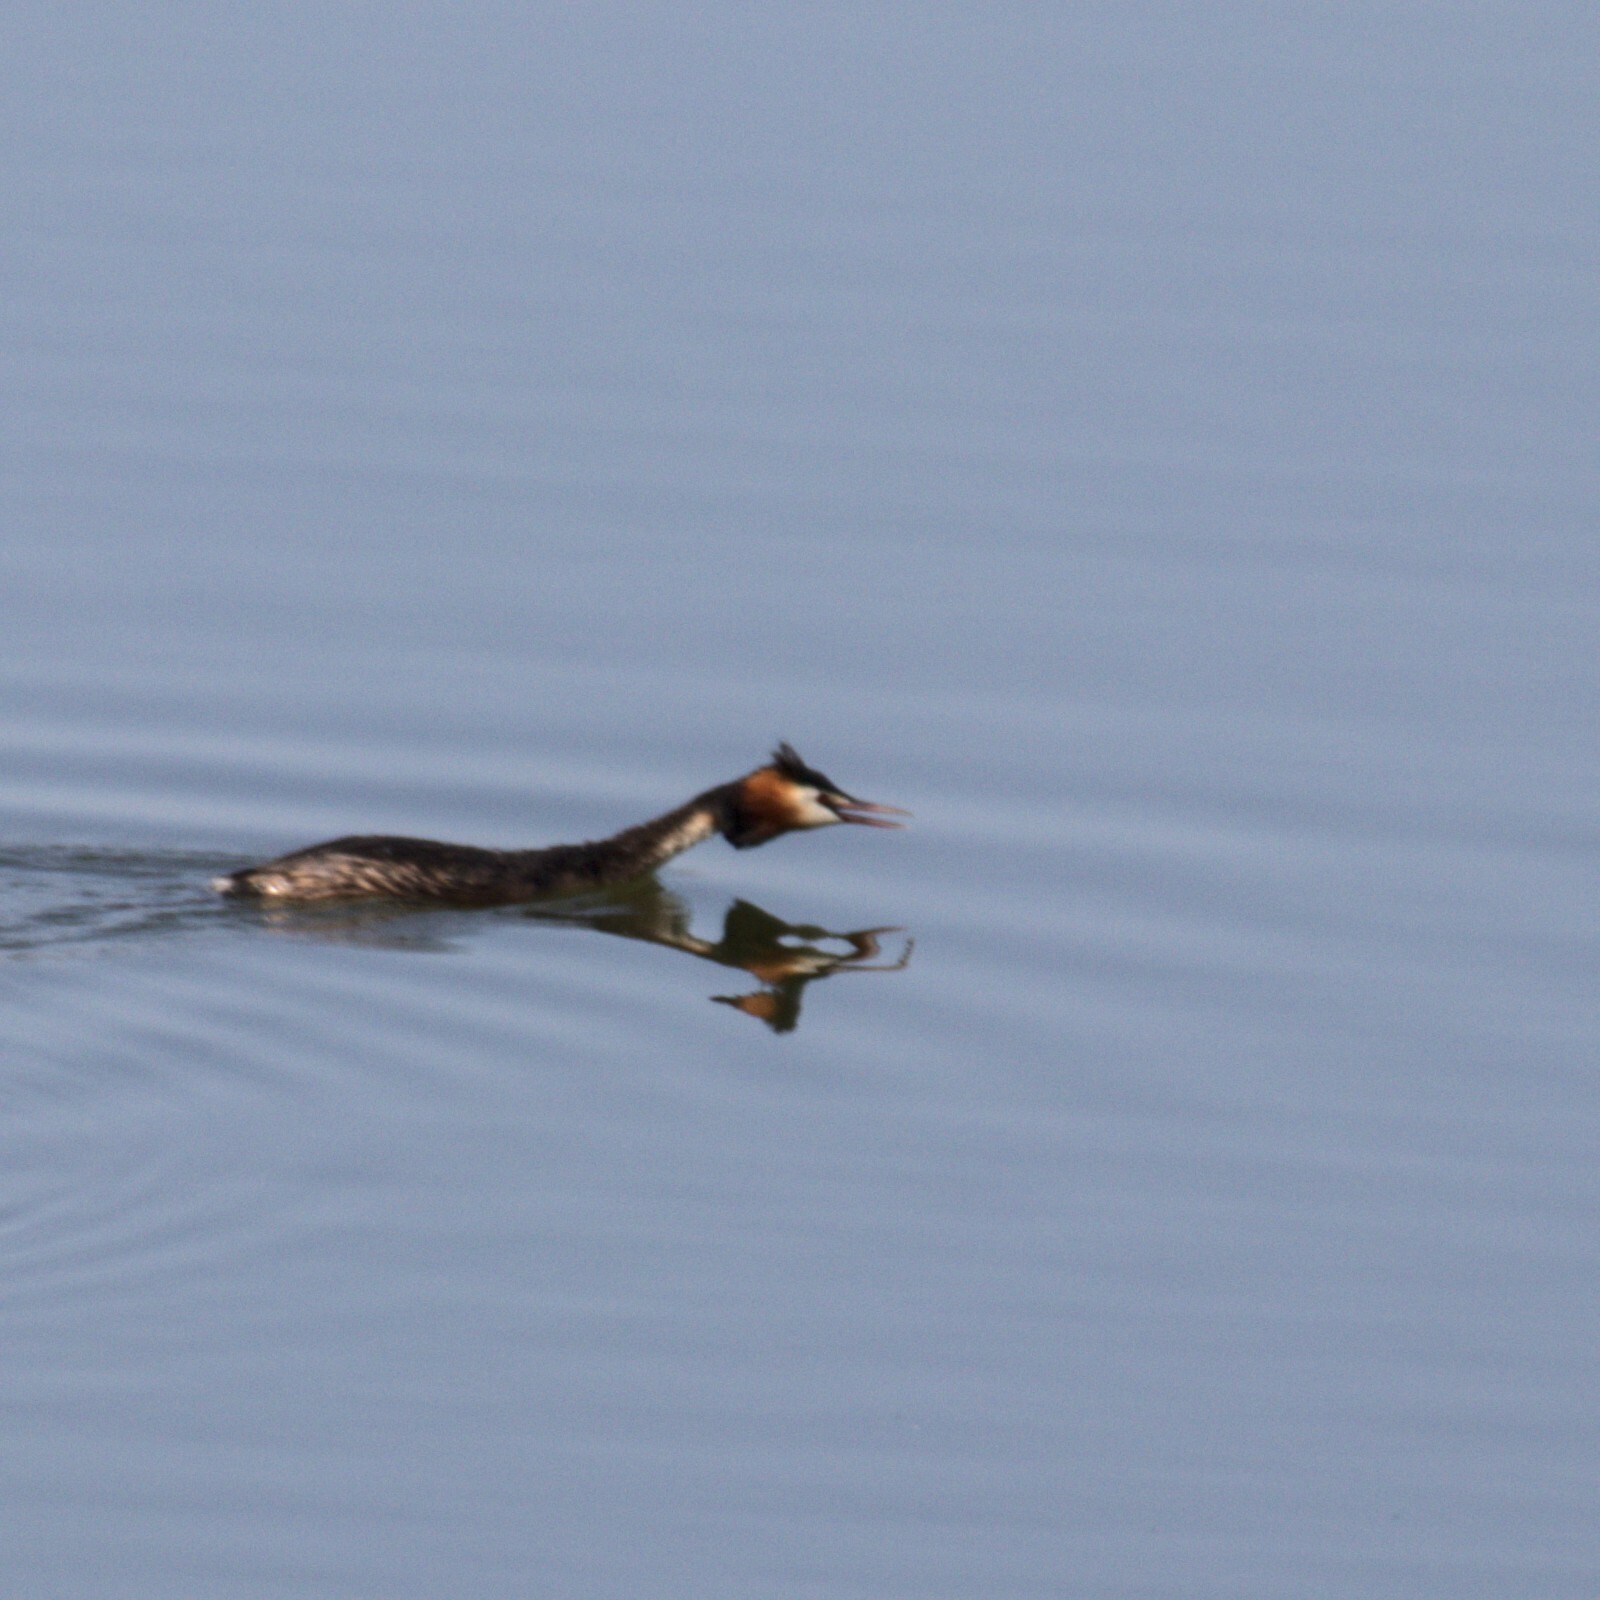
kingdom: Animalia
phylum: Chordata
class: Aves
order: Podicipediformes
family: Podicipedidae
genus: Podiceps
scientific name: Podiceps cristatus
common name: Great crested grebe
